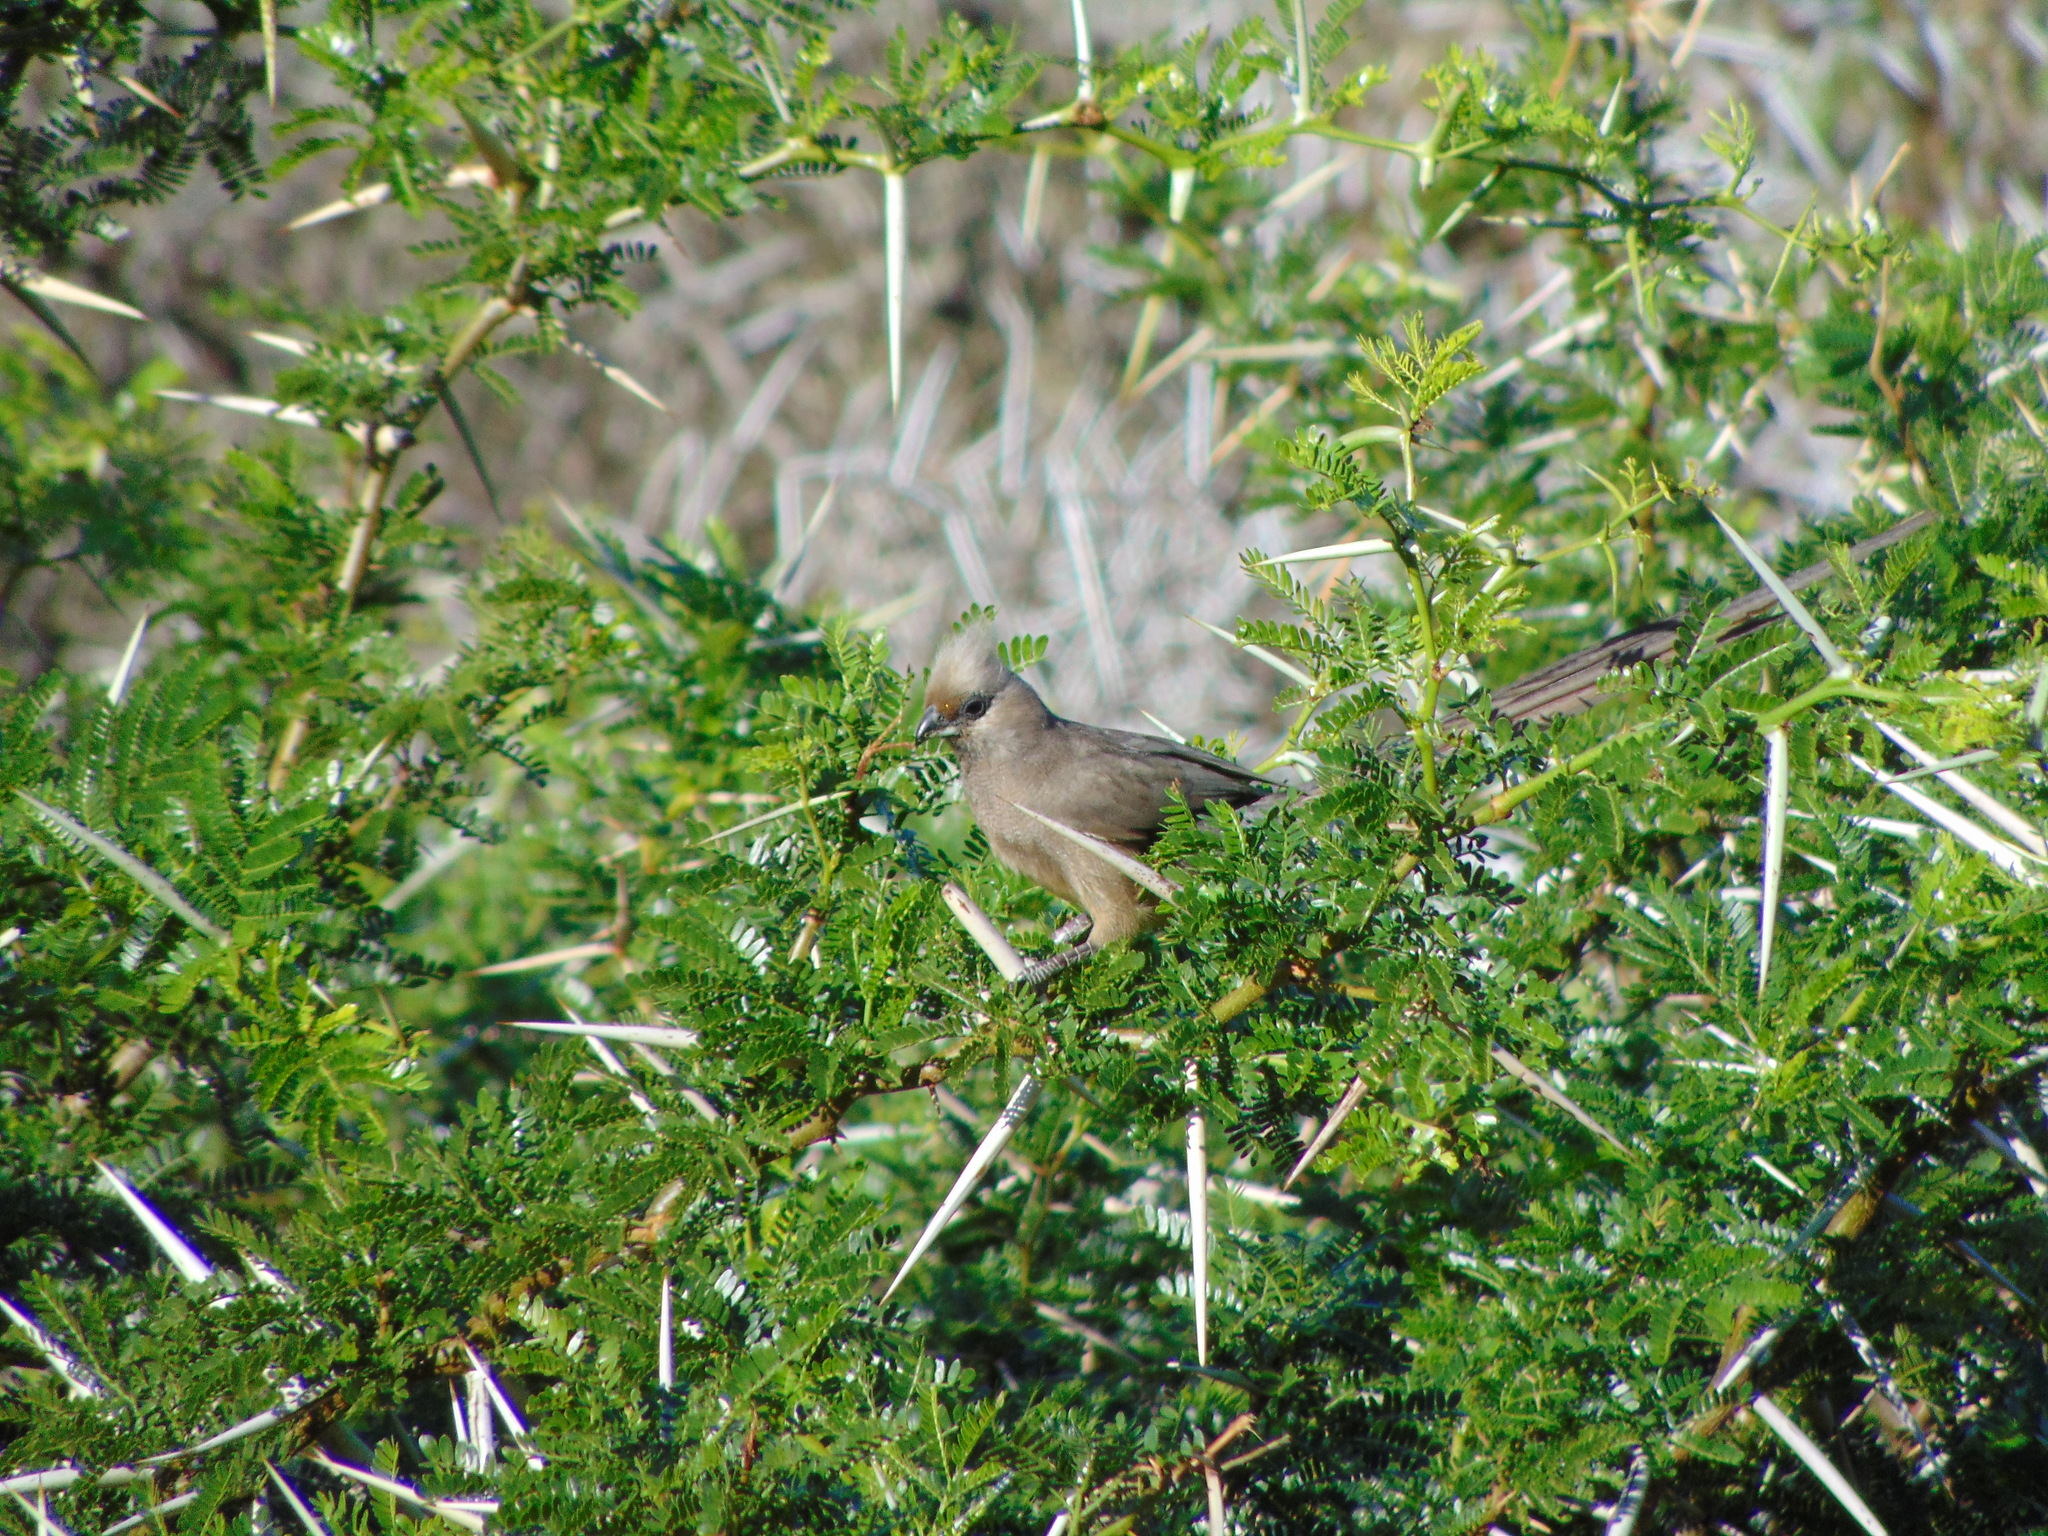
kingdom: Animalia
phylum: Chordata
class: Aves
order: Coliiformes
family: Coliidae
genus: Colius
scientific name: Colius striatus
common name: Speckled mousebird
